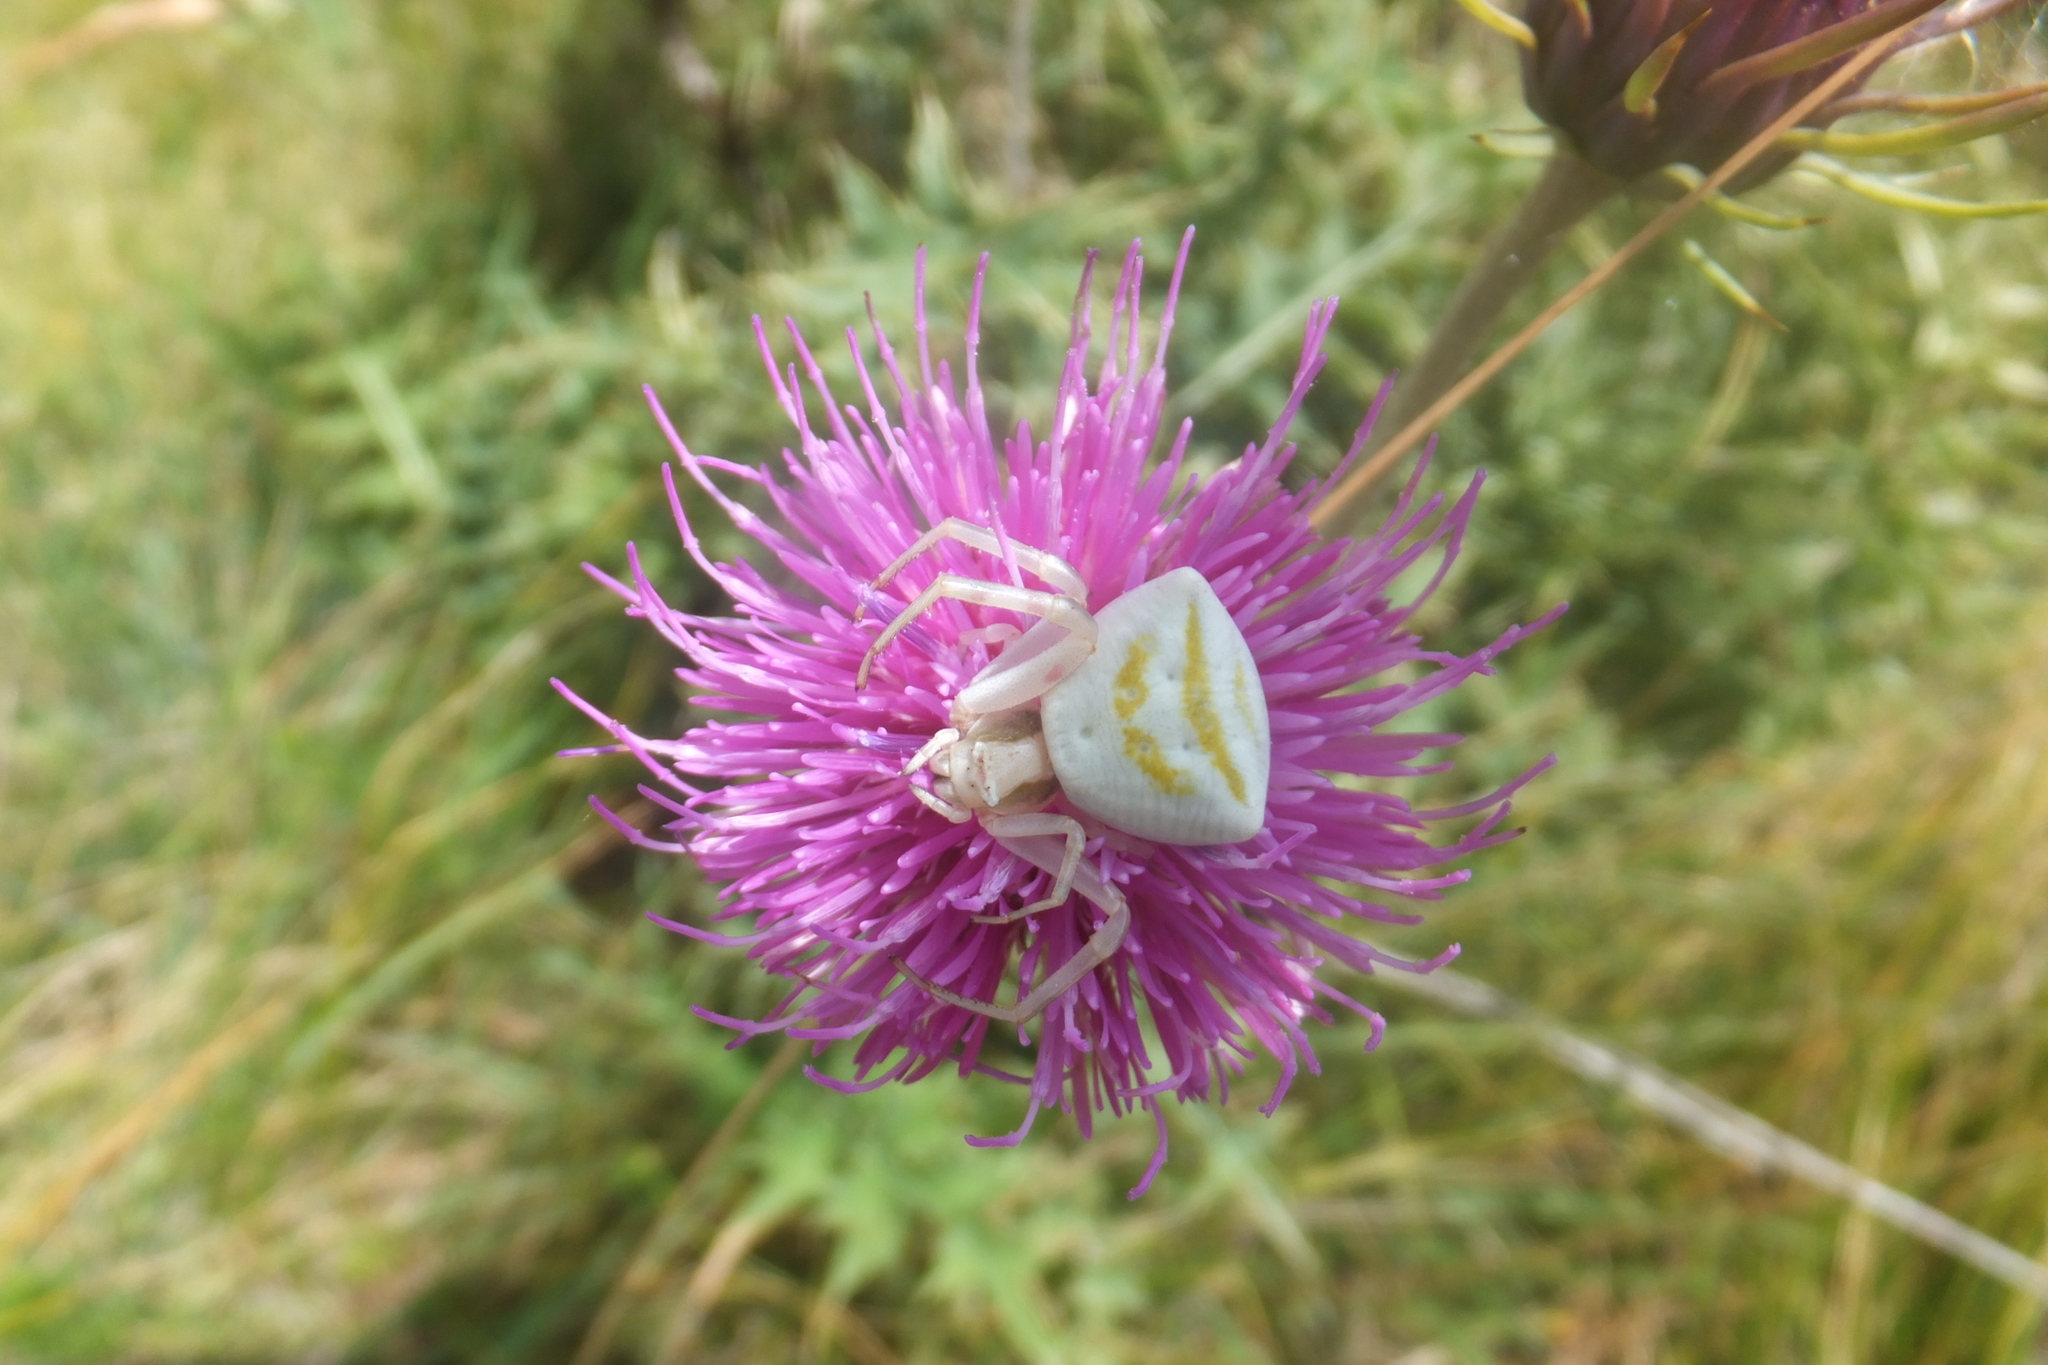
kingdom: Animalia
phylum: Arthropoda
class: Arachnida
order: Araneae
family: Thomisidae
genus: Thomisus
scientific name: Thomisus onustus
